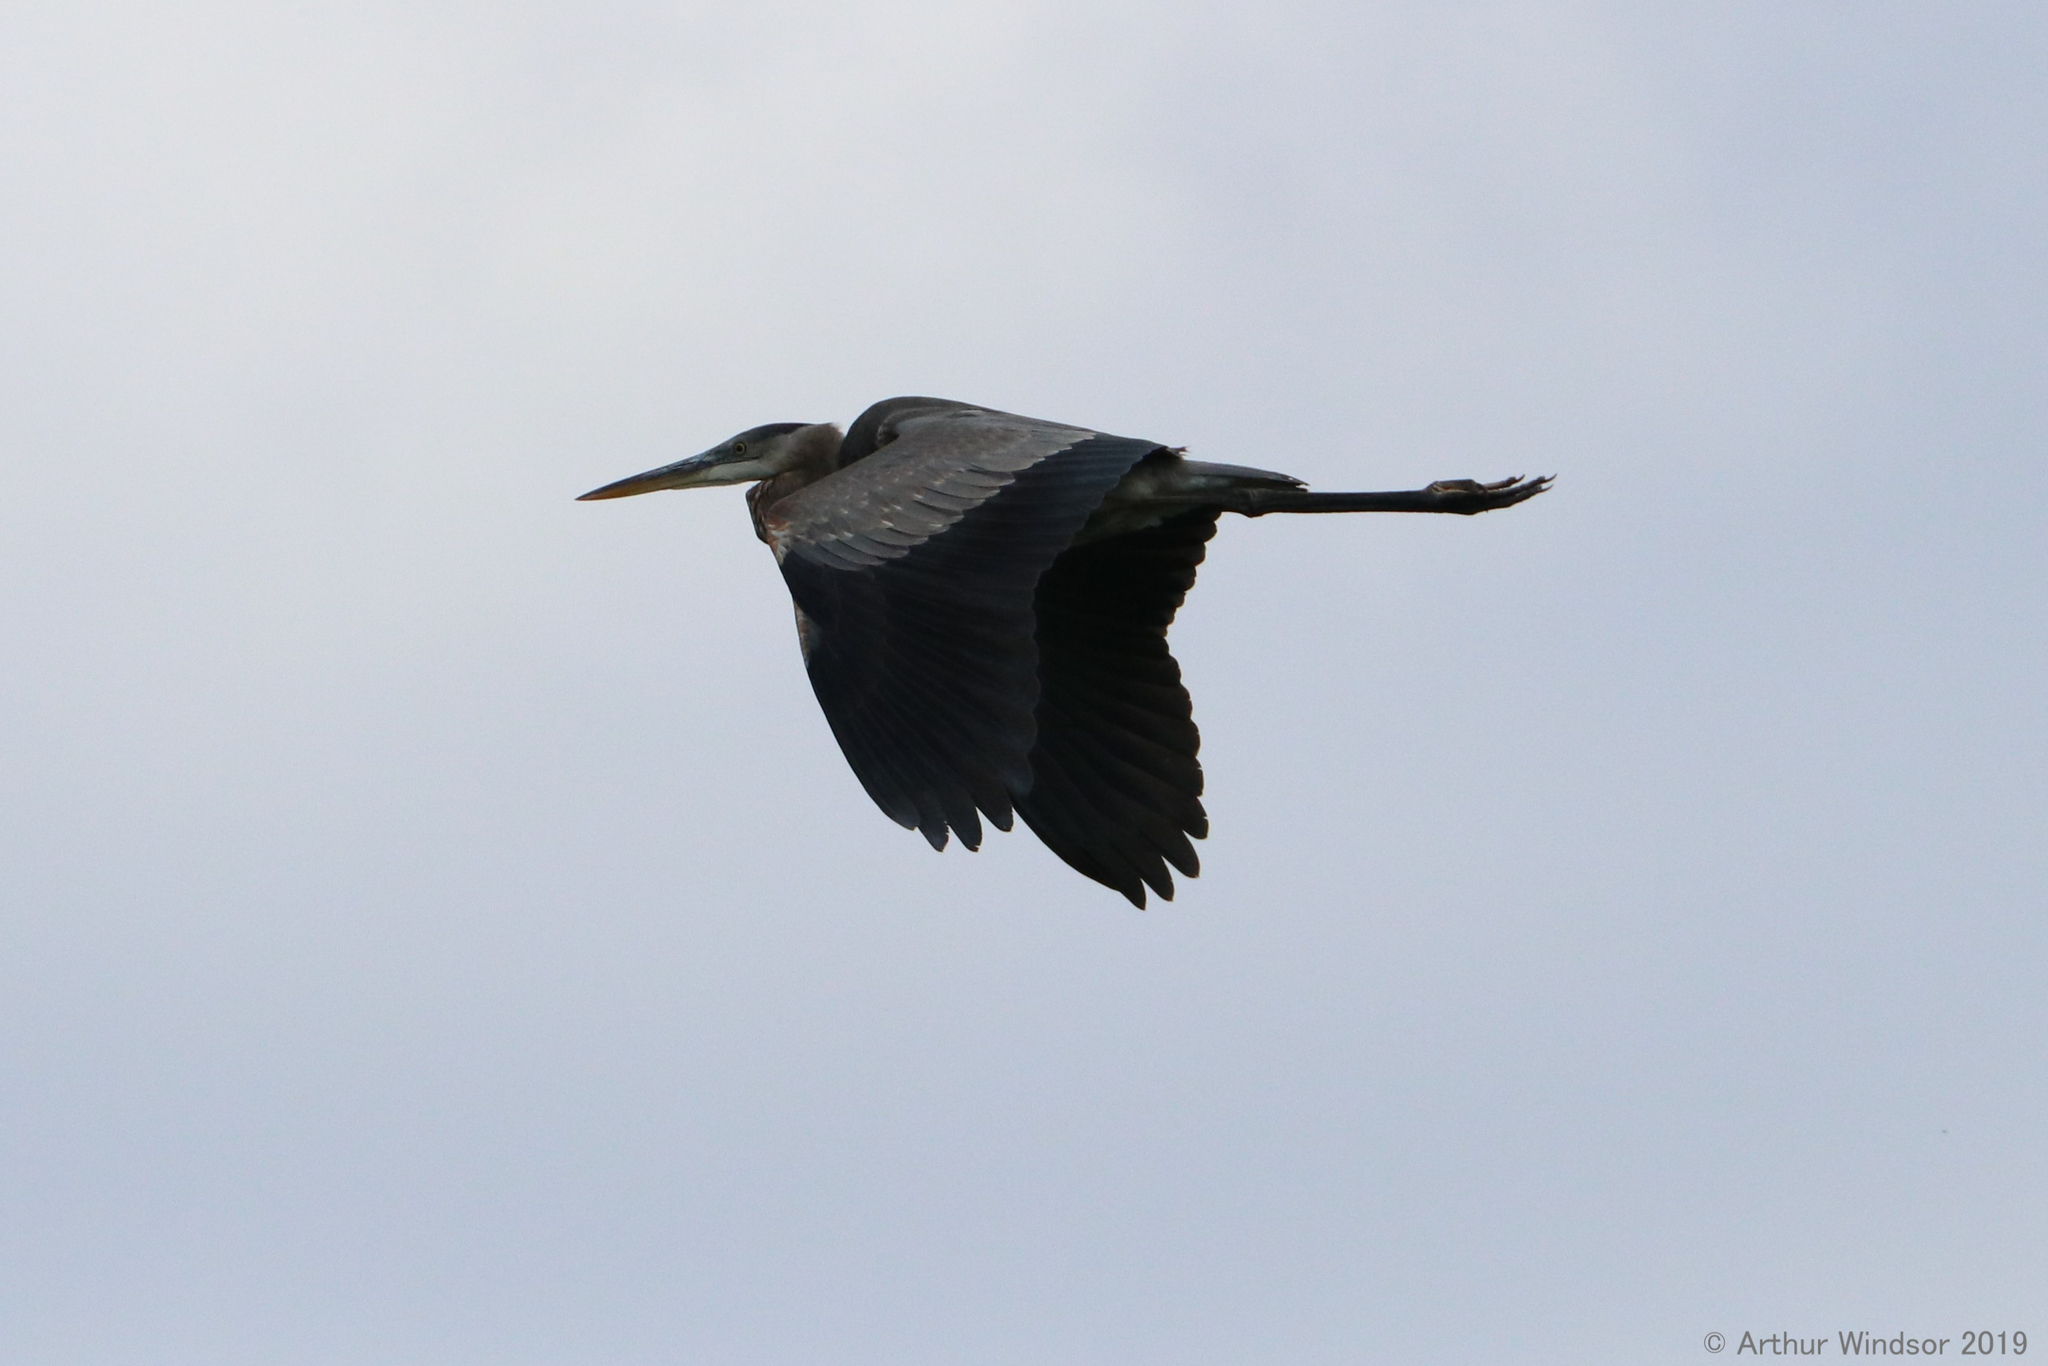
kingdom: Animalia
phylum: Chordata
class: Aves
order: Pelecaniformes
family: Ardeidae
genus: Ardea
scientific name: Ardea herodias
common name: Great blue heron
